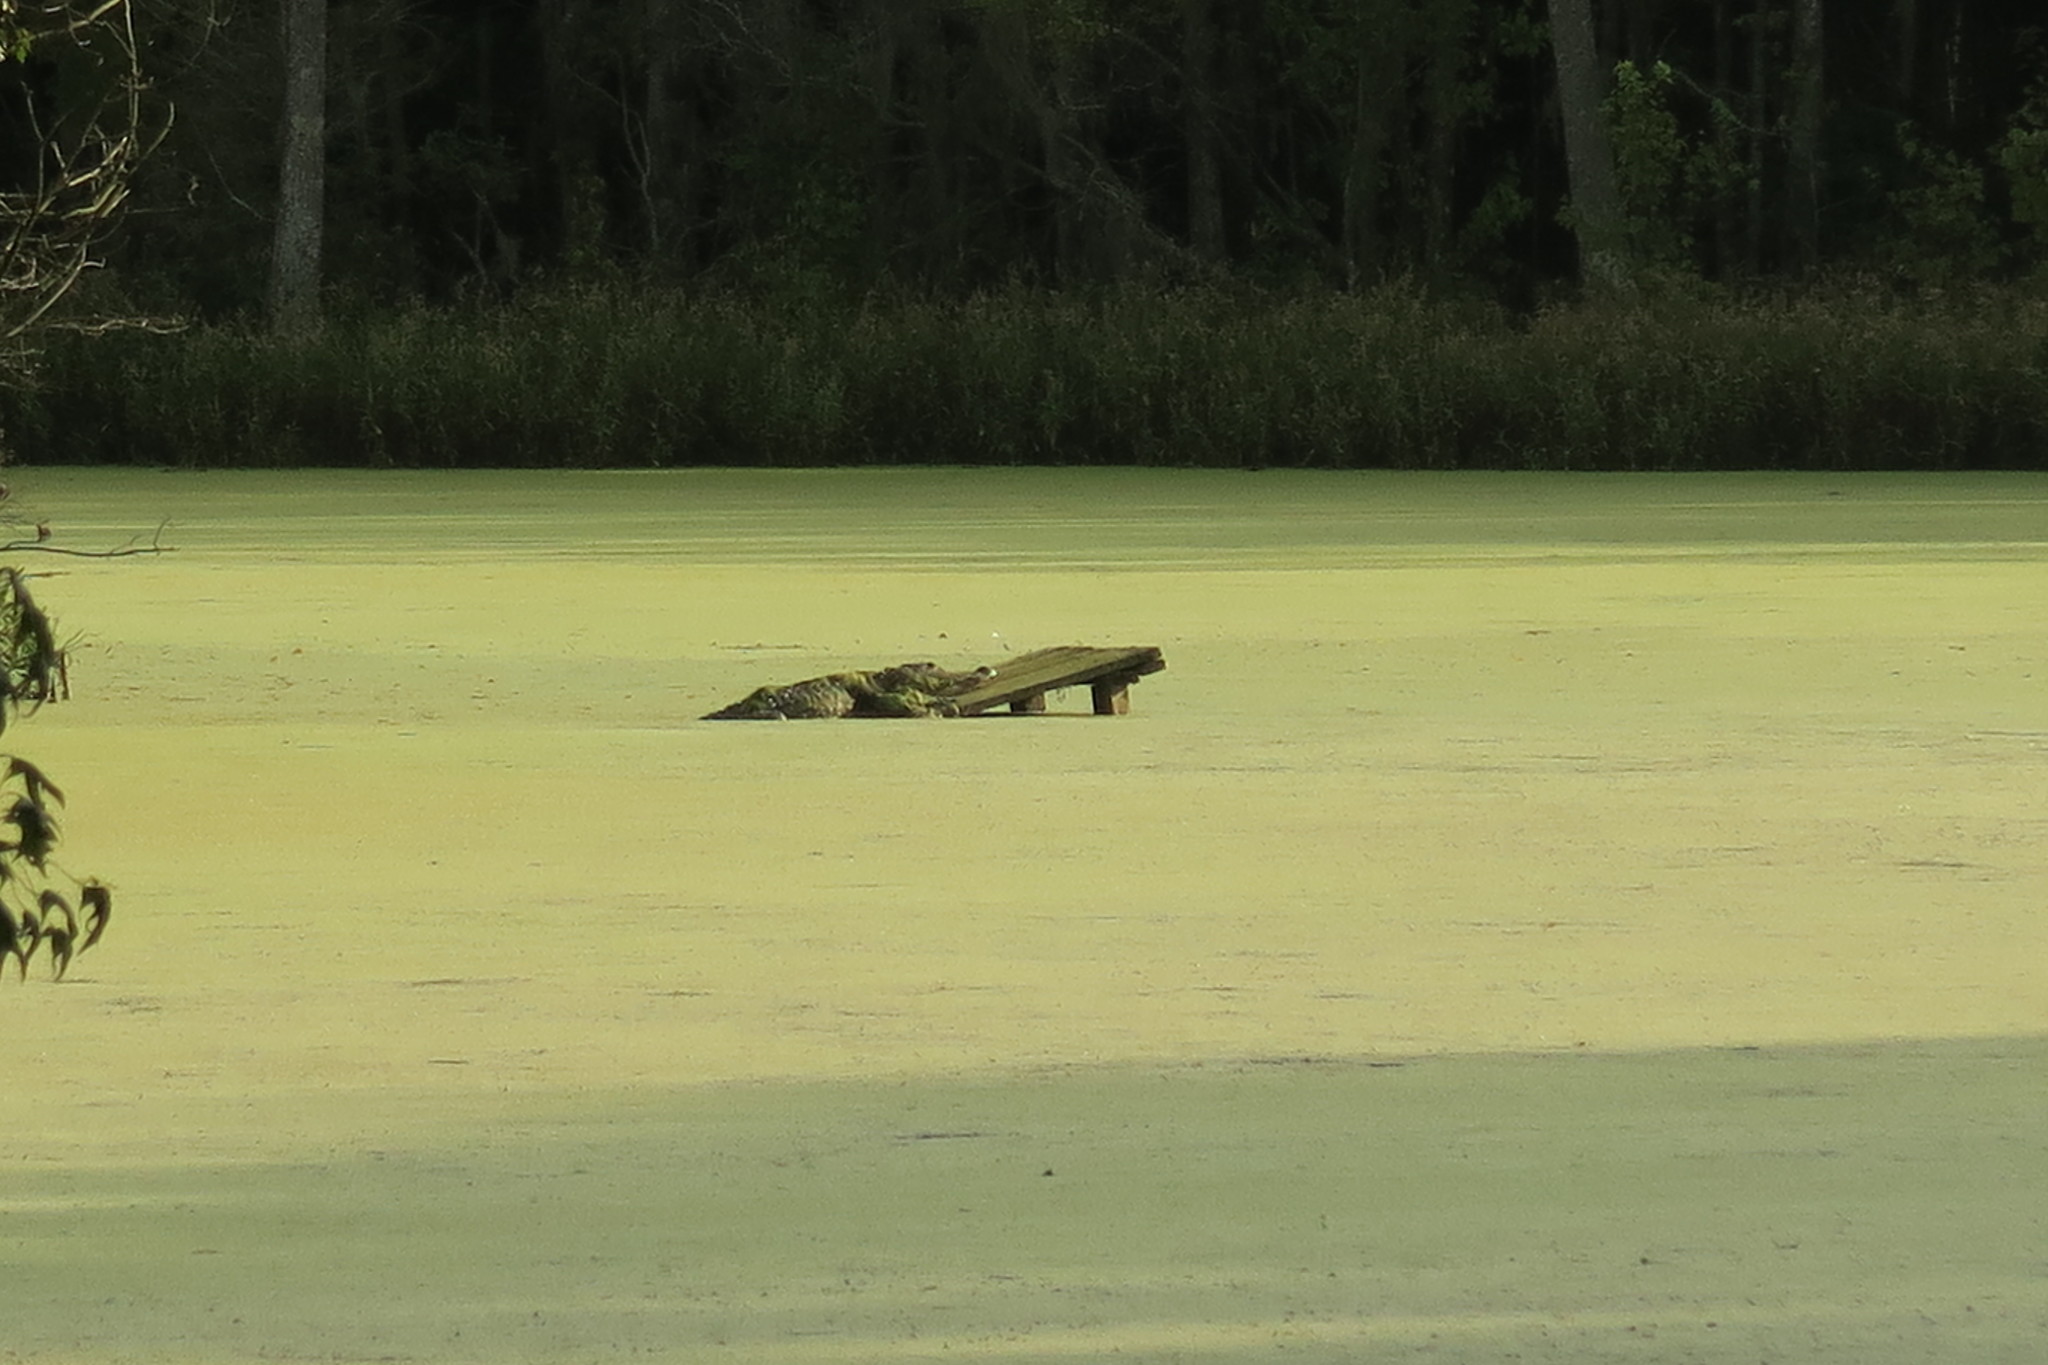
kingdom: Animalia
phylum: Chordata
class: Crocodylia
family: Alligatoridae
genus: Alligator
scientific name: Alligator mississippiensis
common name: American alligator
